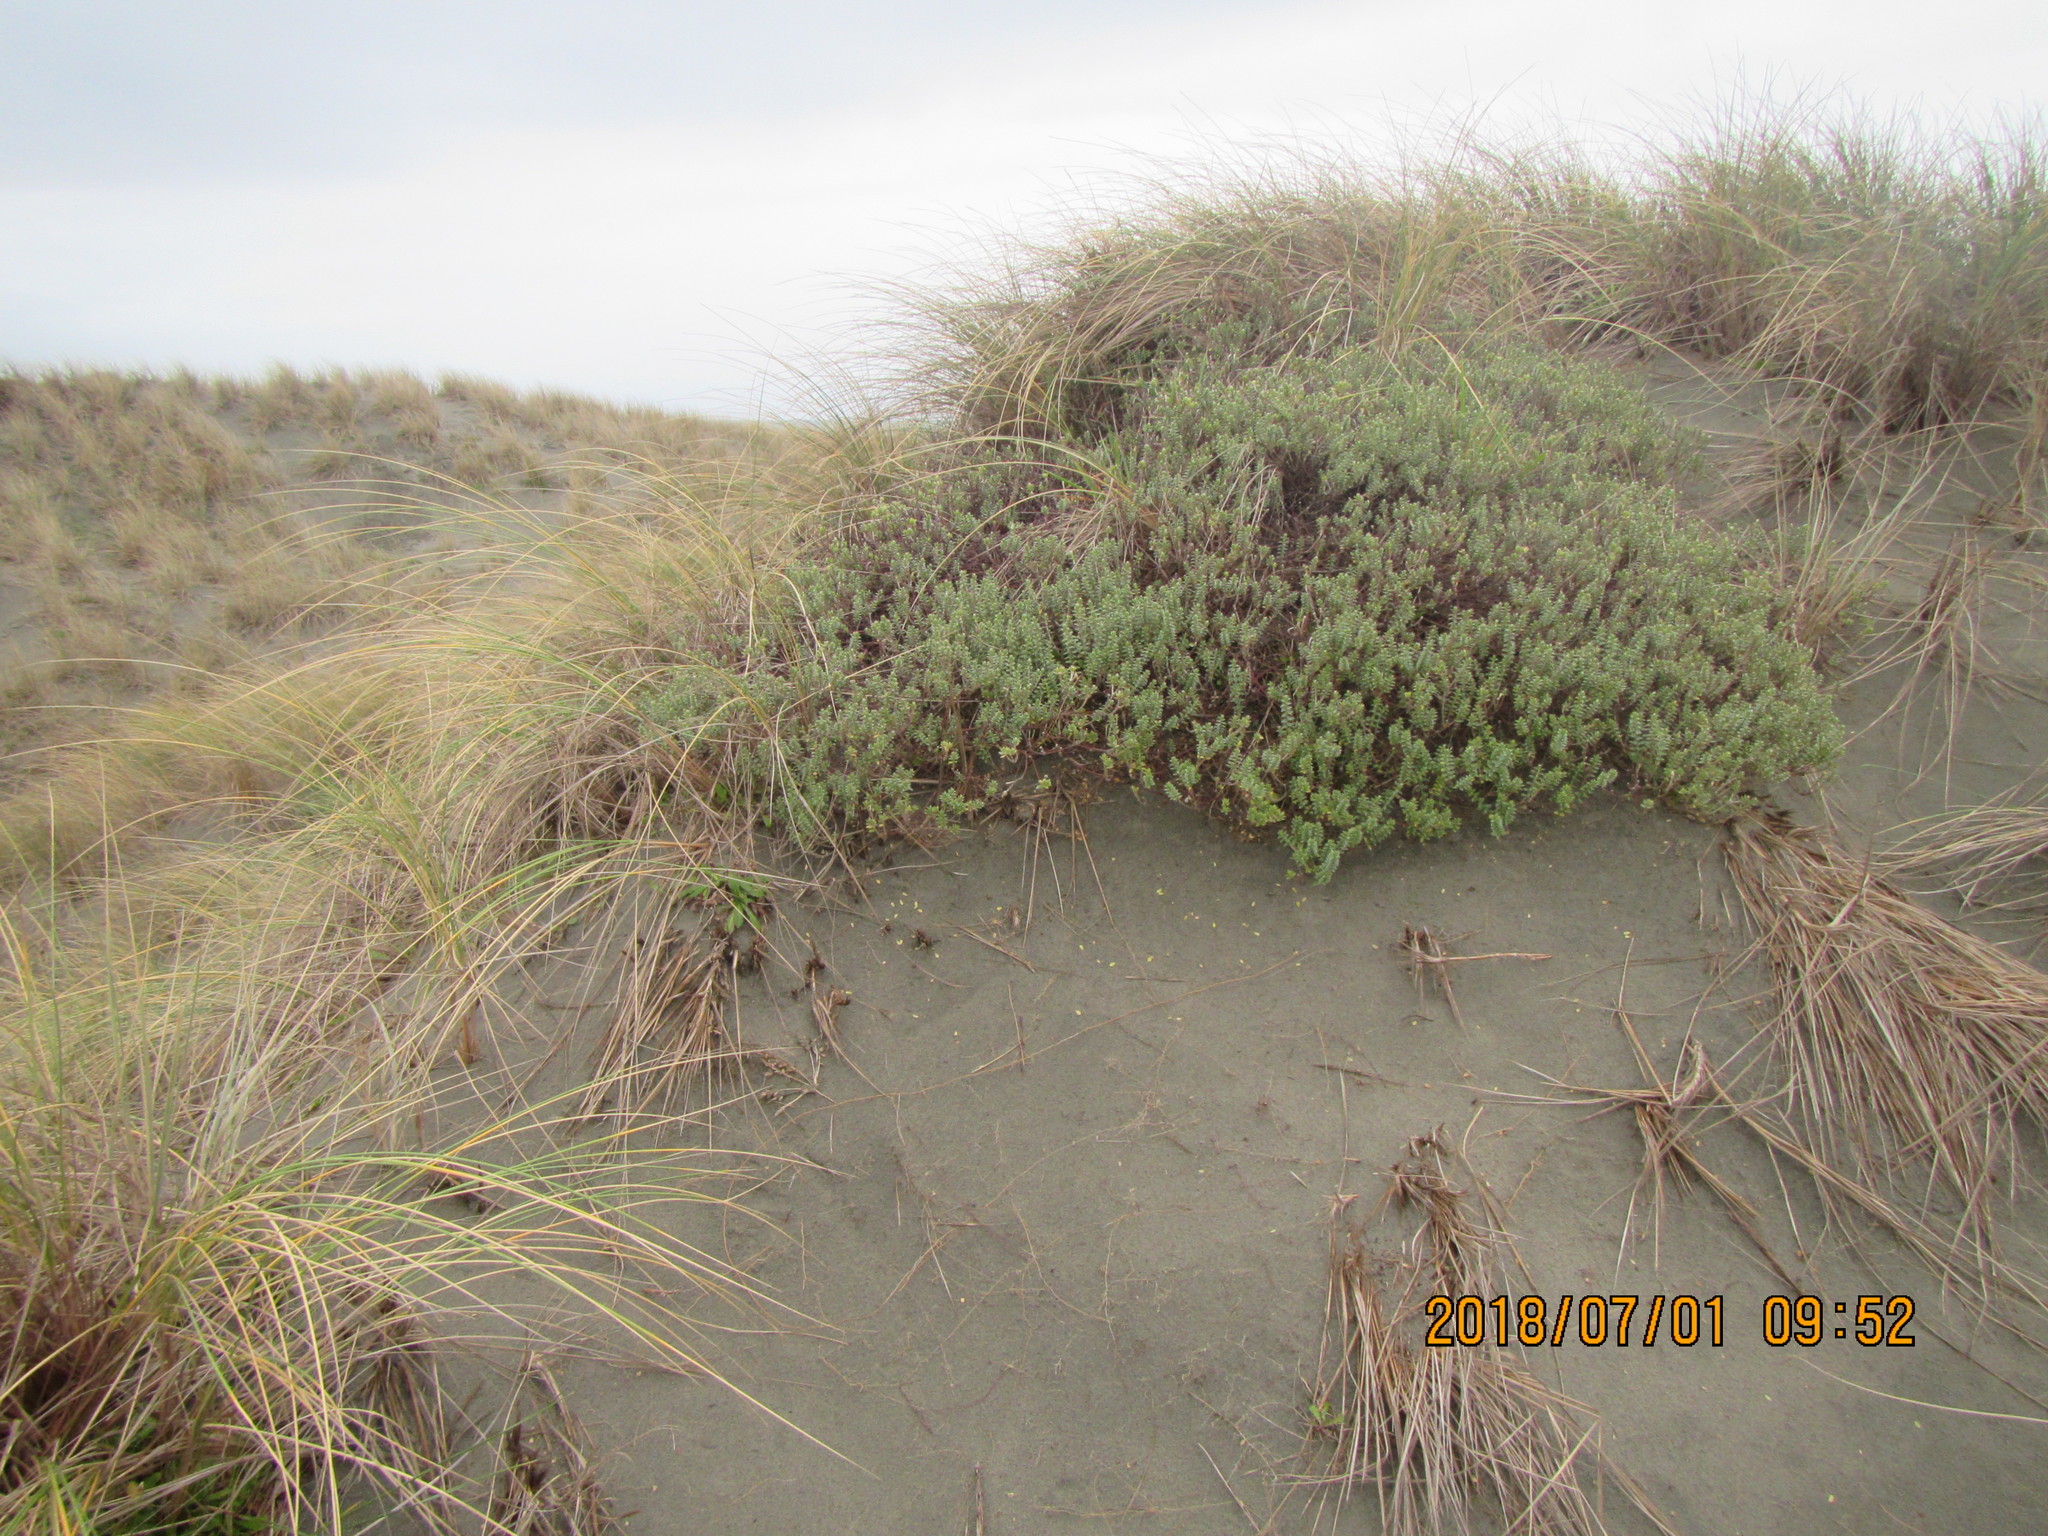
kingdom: Plantae
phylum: Tracheophyta
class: Magnoliopsida
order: Malvales
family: Thymelaeaceae
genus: Pimelea
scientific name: Pimelea villosa
